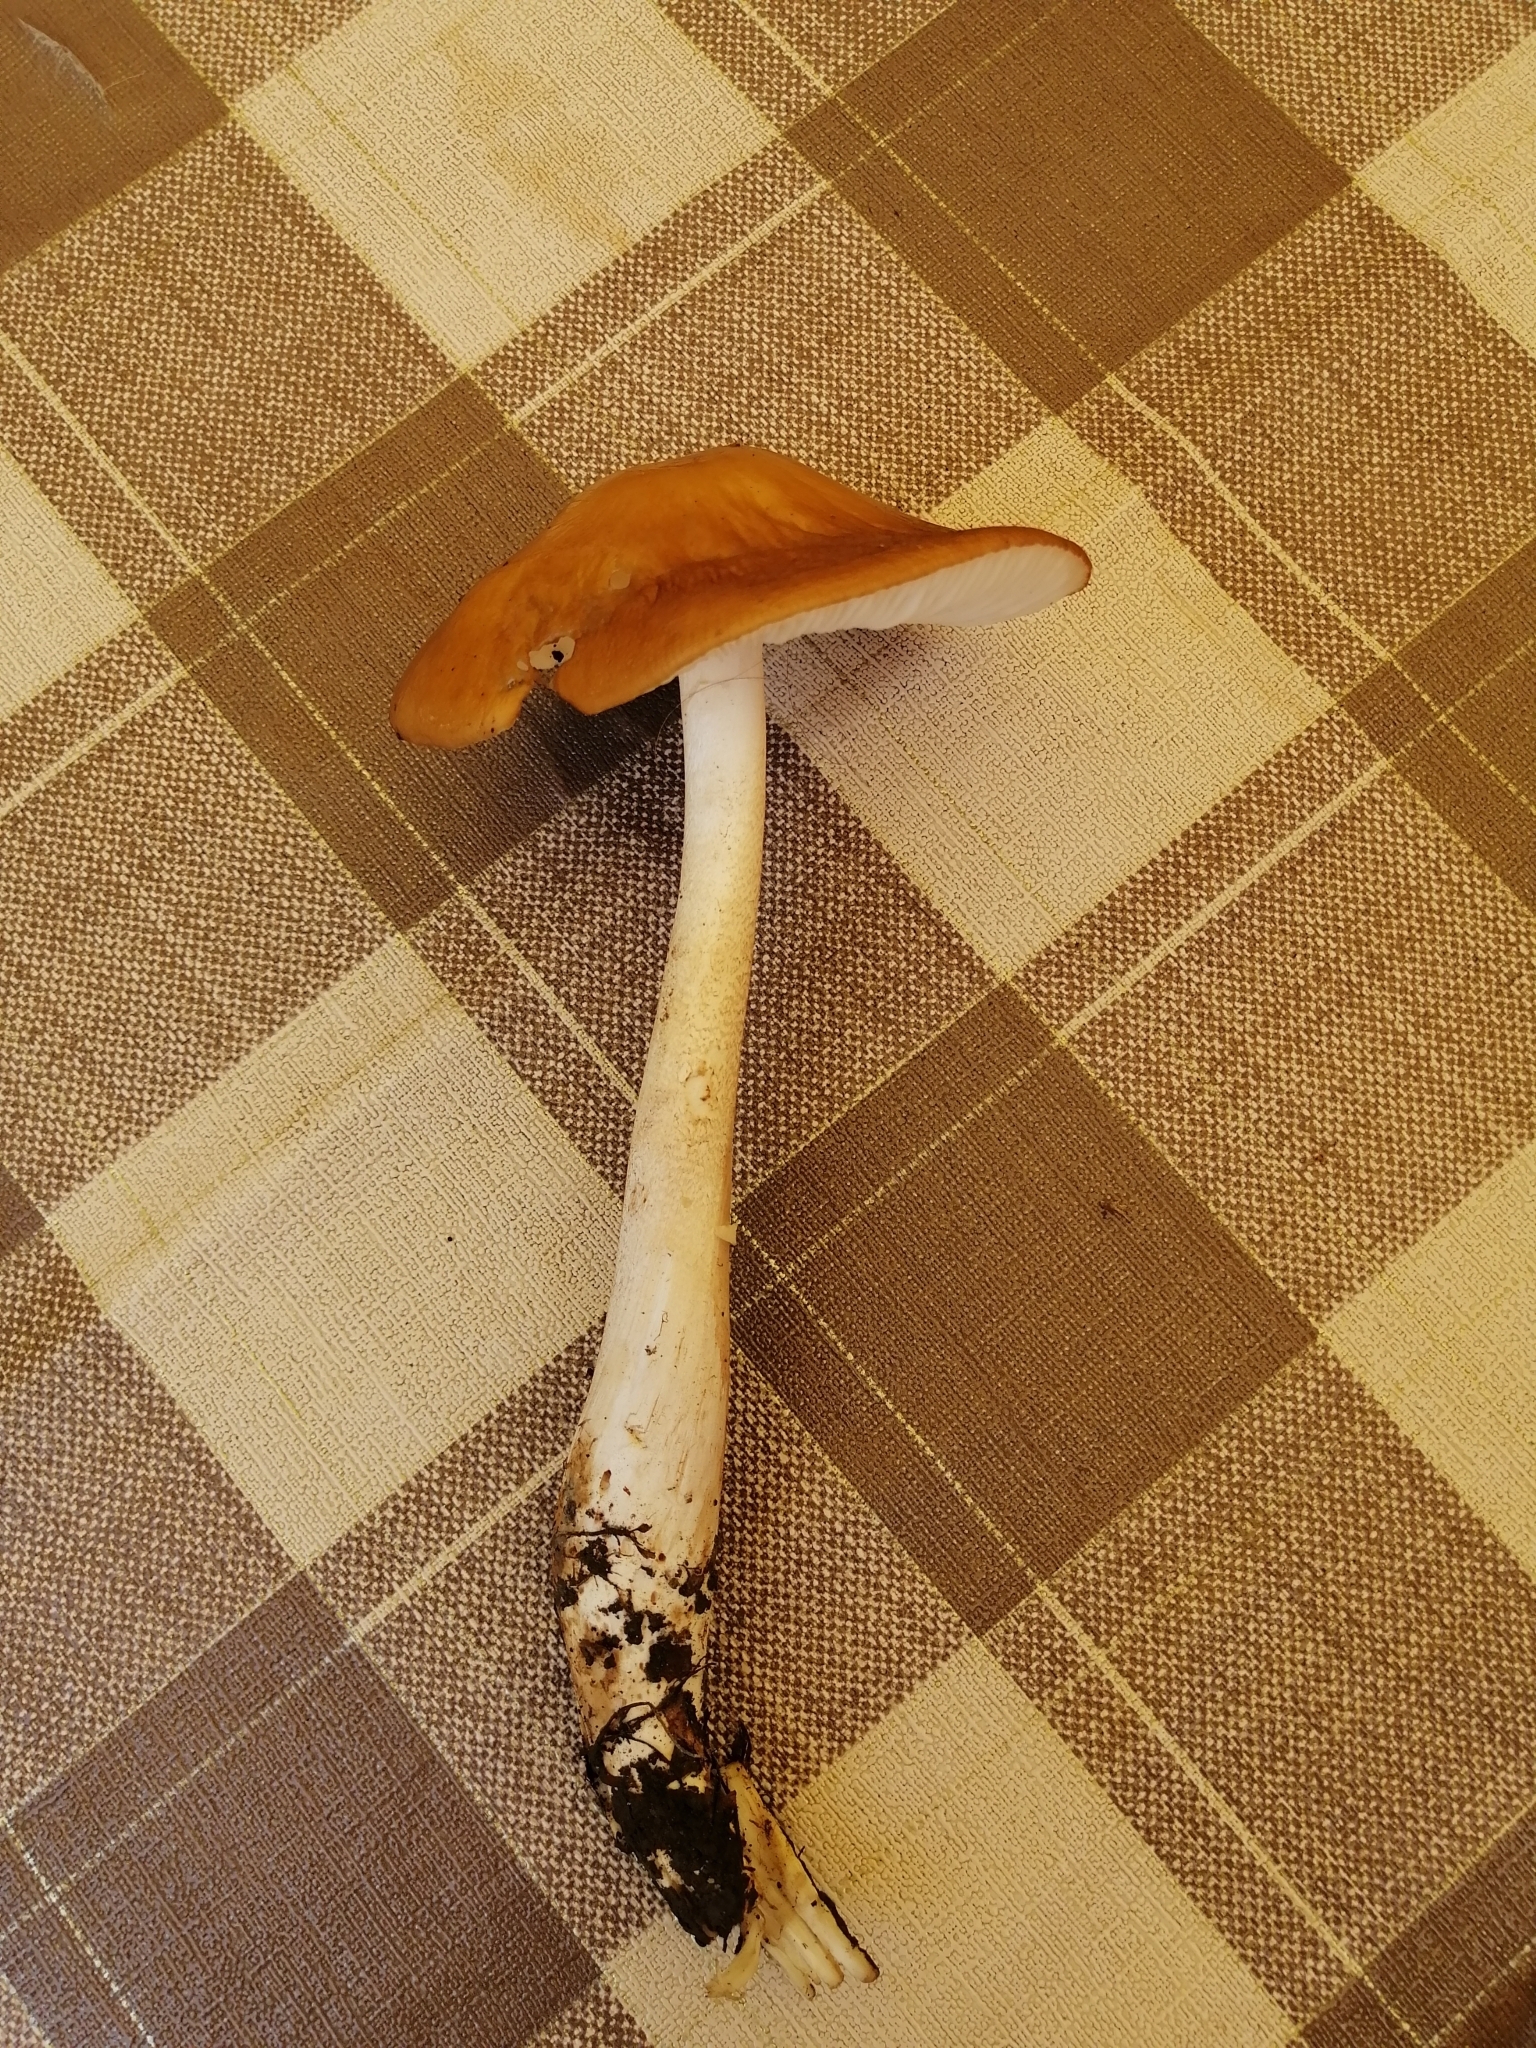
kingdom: Fungi
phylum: Basidiomycota
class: Agaricomycetes
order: Agaricales
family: Physalacriaceae
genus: Hymenopellis
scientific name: Hymenopellis radicata
